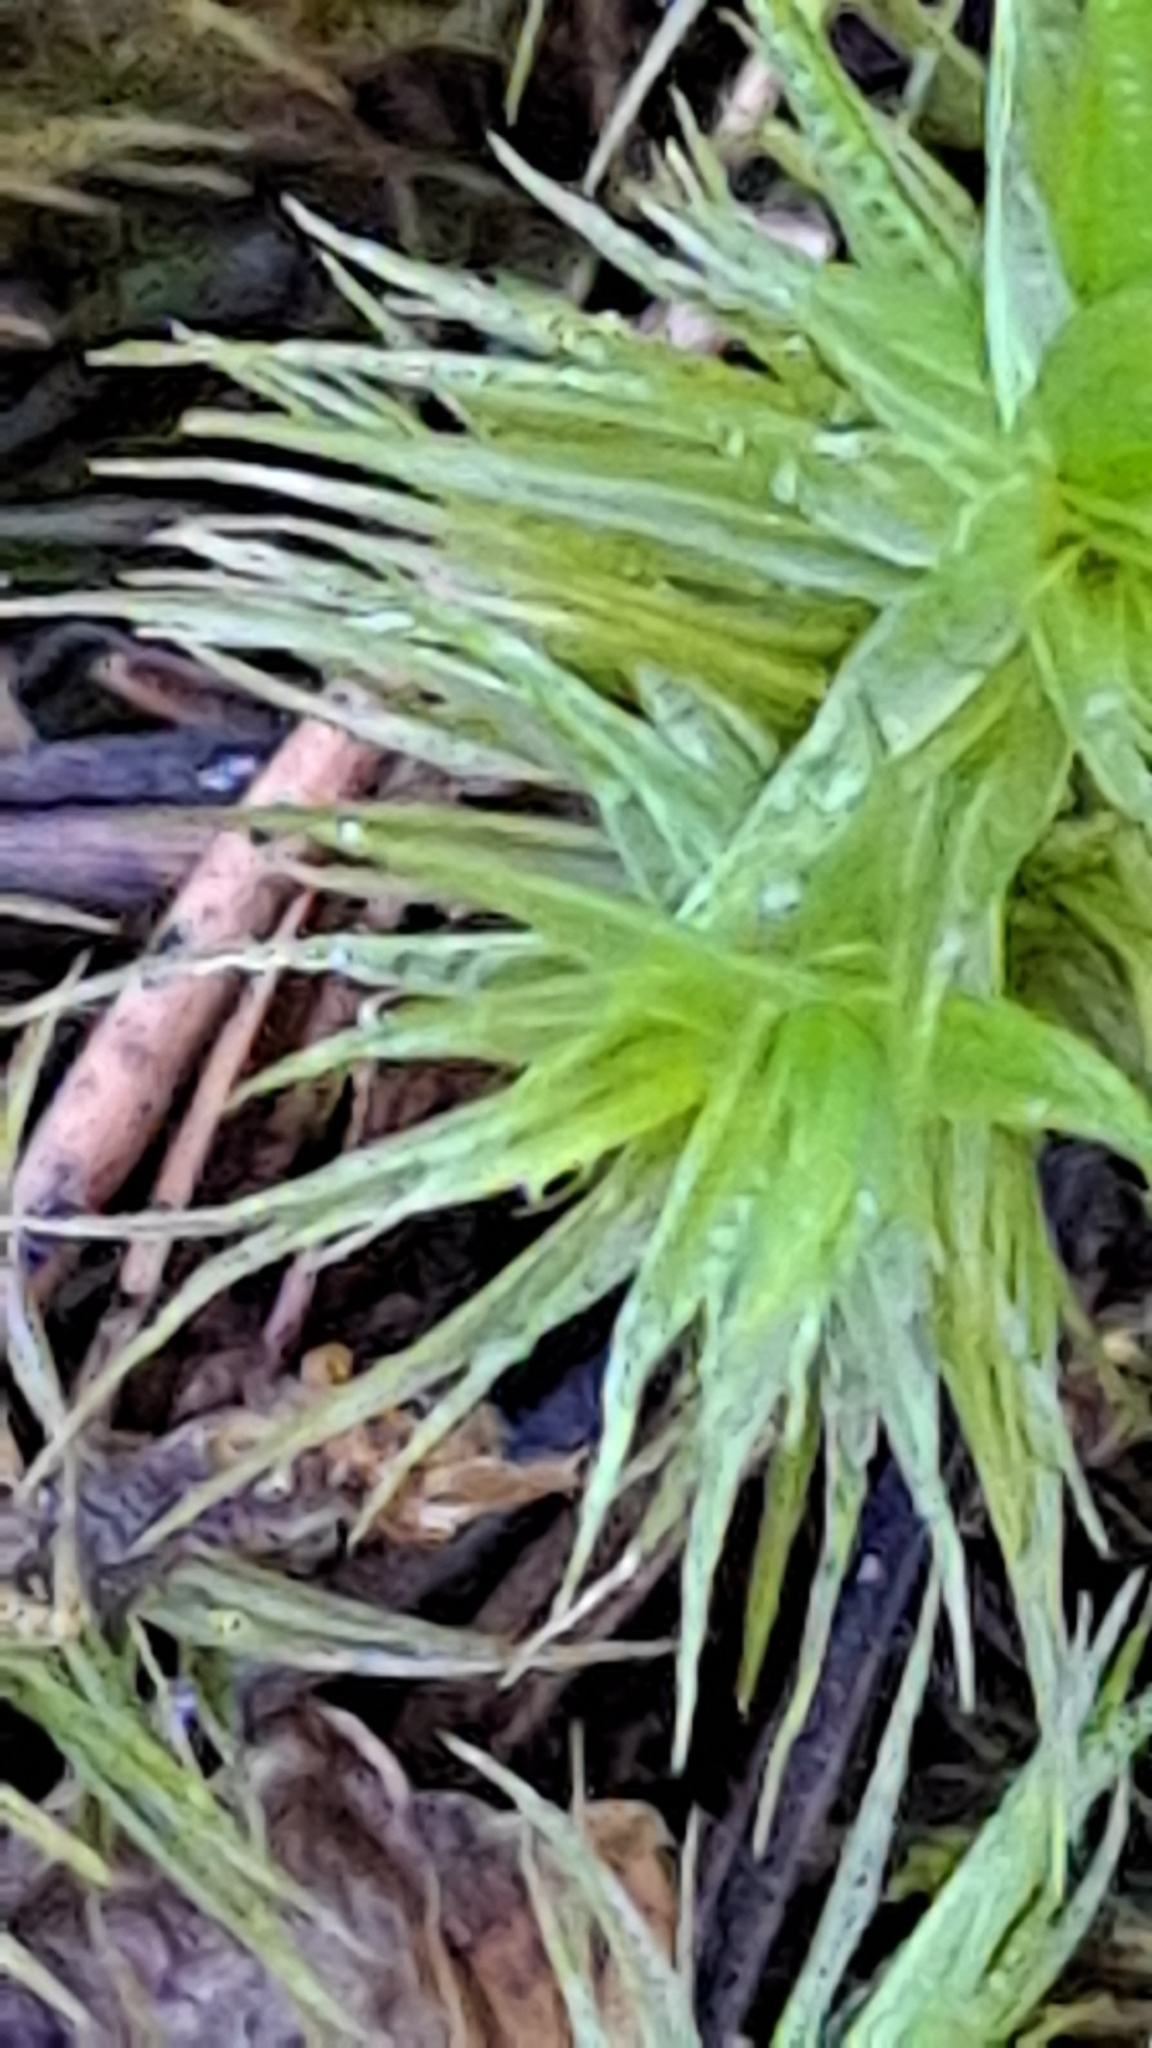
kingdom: Plantae
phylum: Bryophyta
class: Bryopsida
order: Dicranales
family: Dicranaceae
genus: Dicranum
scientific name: Dicranum polysetum
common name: Rugose fork-moss
